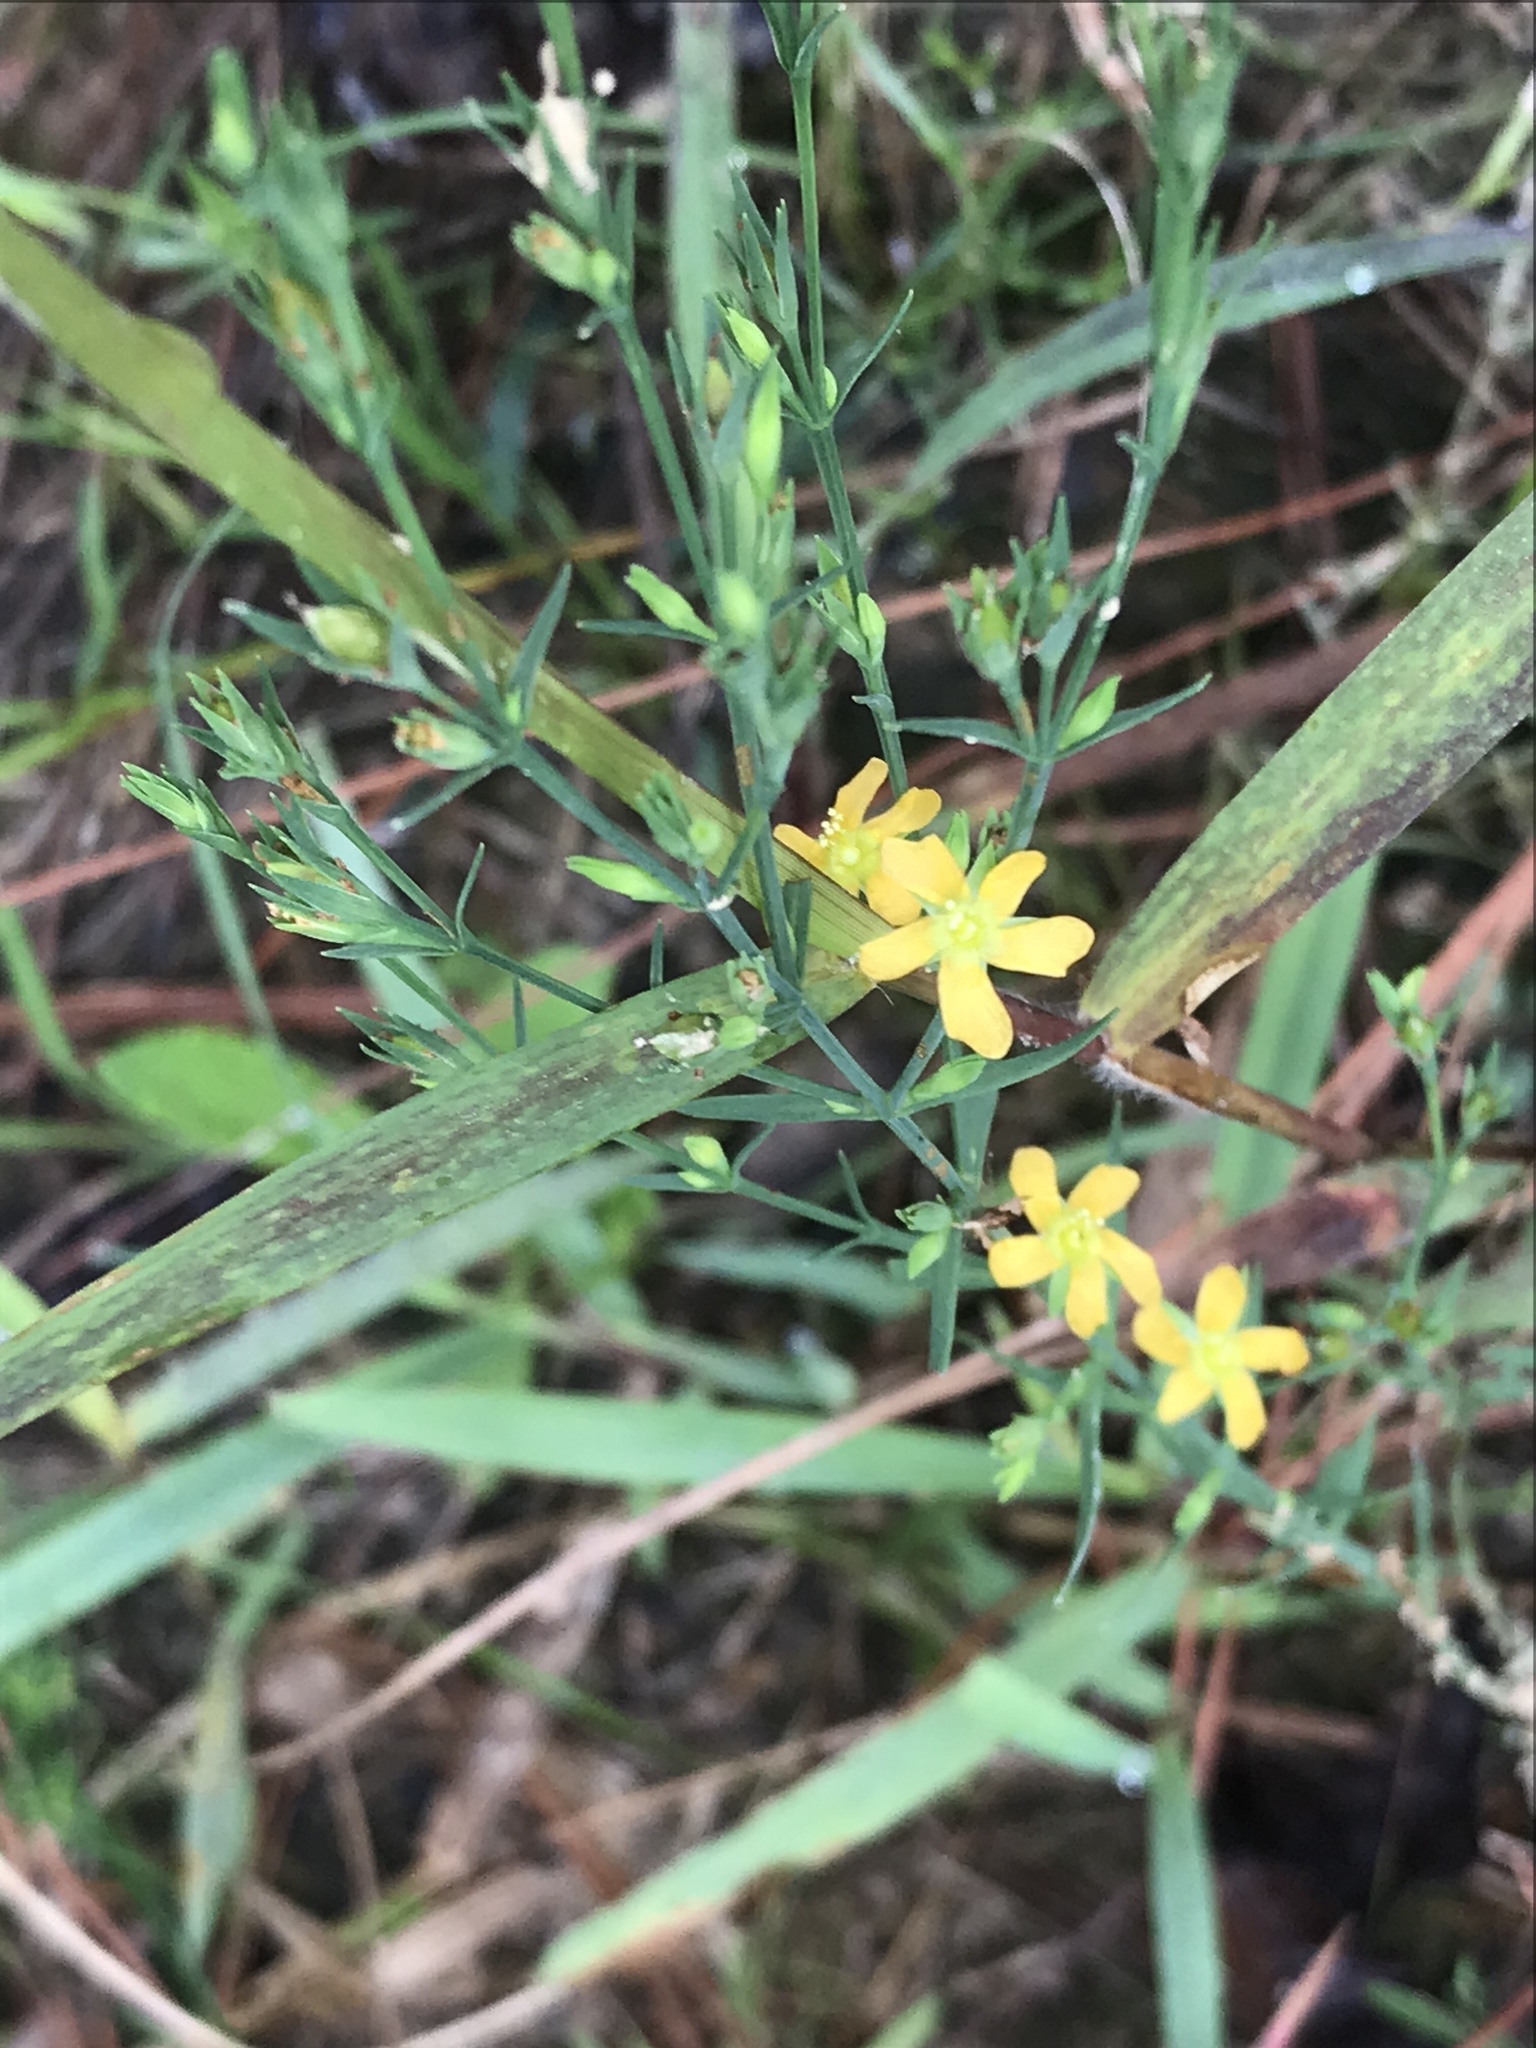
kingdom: Plantae
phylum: Tracheophyta
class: Magnoliopsida
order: Malpighiales
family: Hypericaceae
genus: Hypericum
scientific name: Hypericum drummondii
